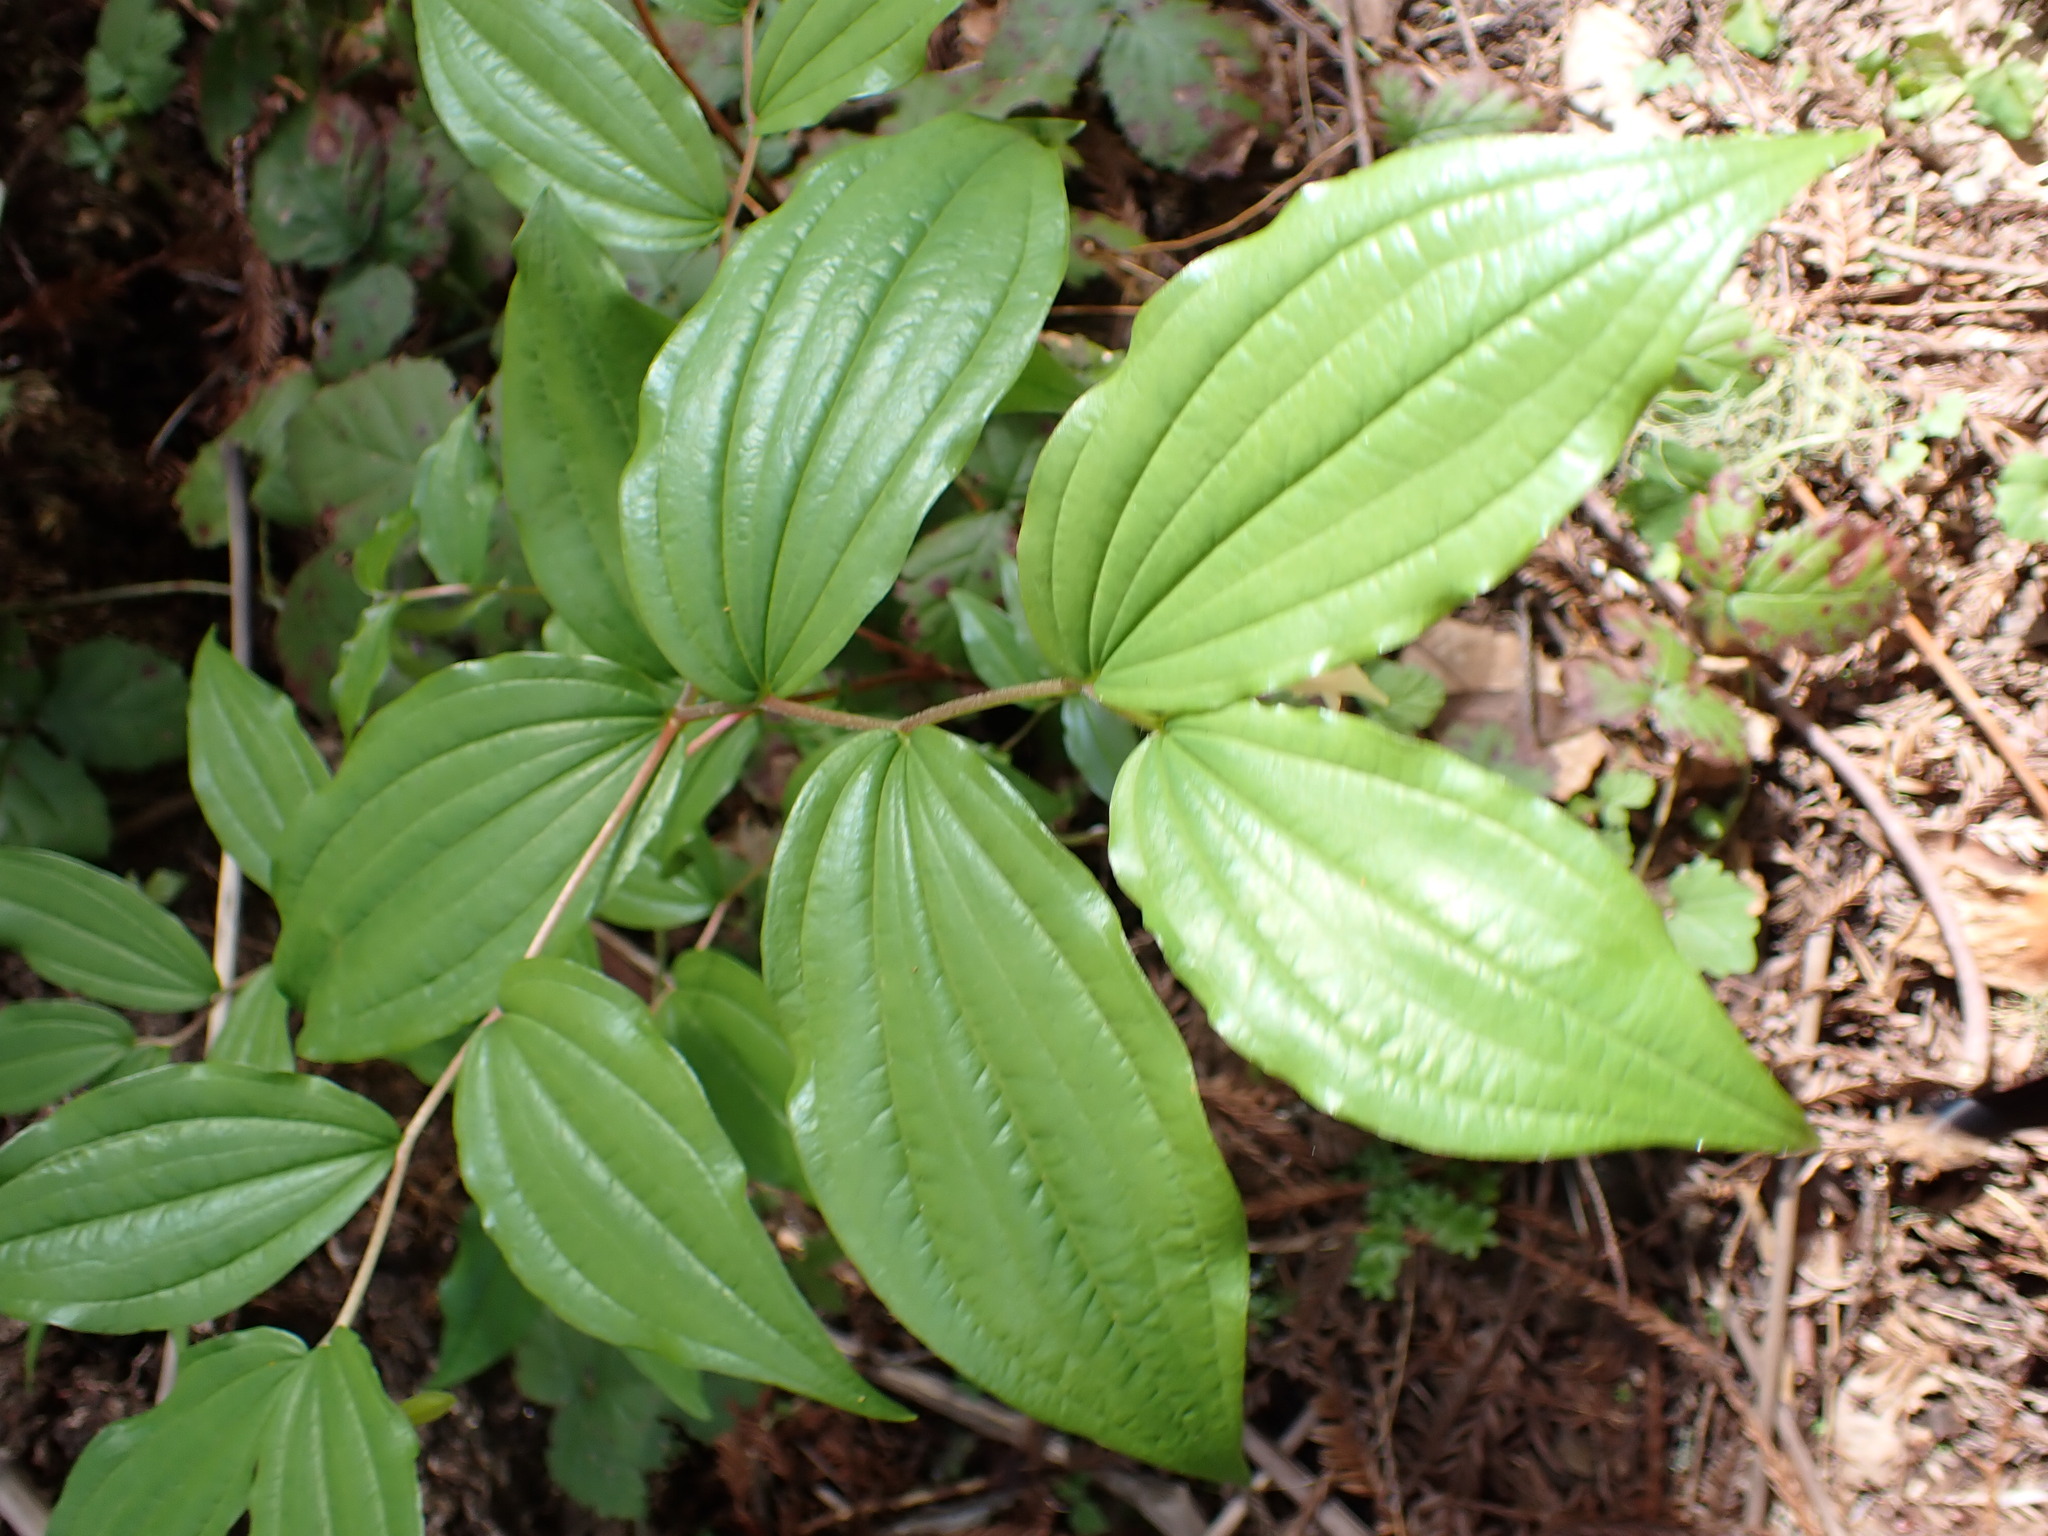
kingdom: Plantae
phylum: Tracheophyta
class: Liliopsida
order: Liliales
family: Liliaceae
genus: Prosartes
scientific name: Prosartes smithii
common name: Fairy-lantern
